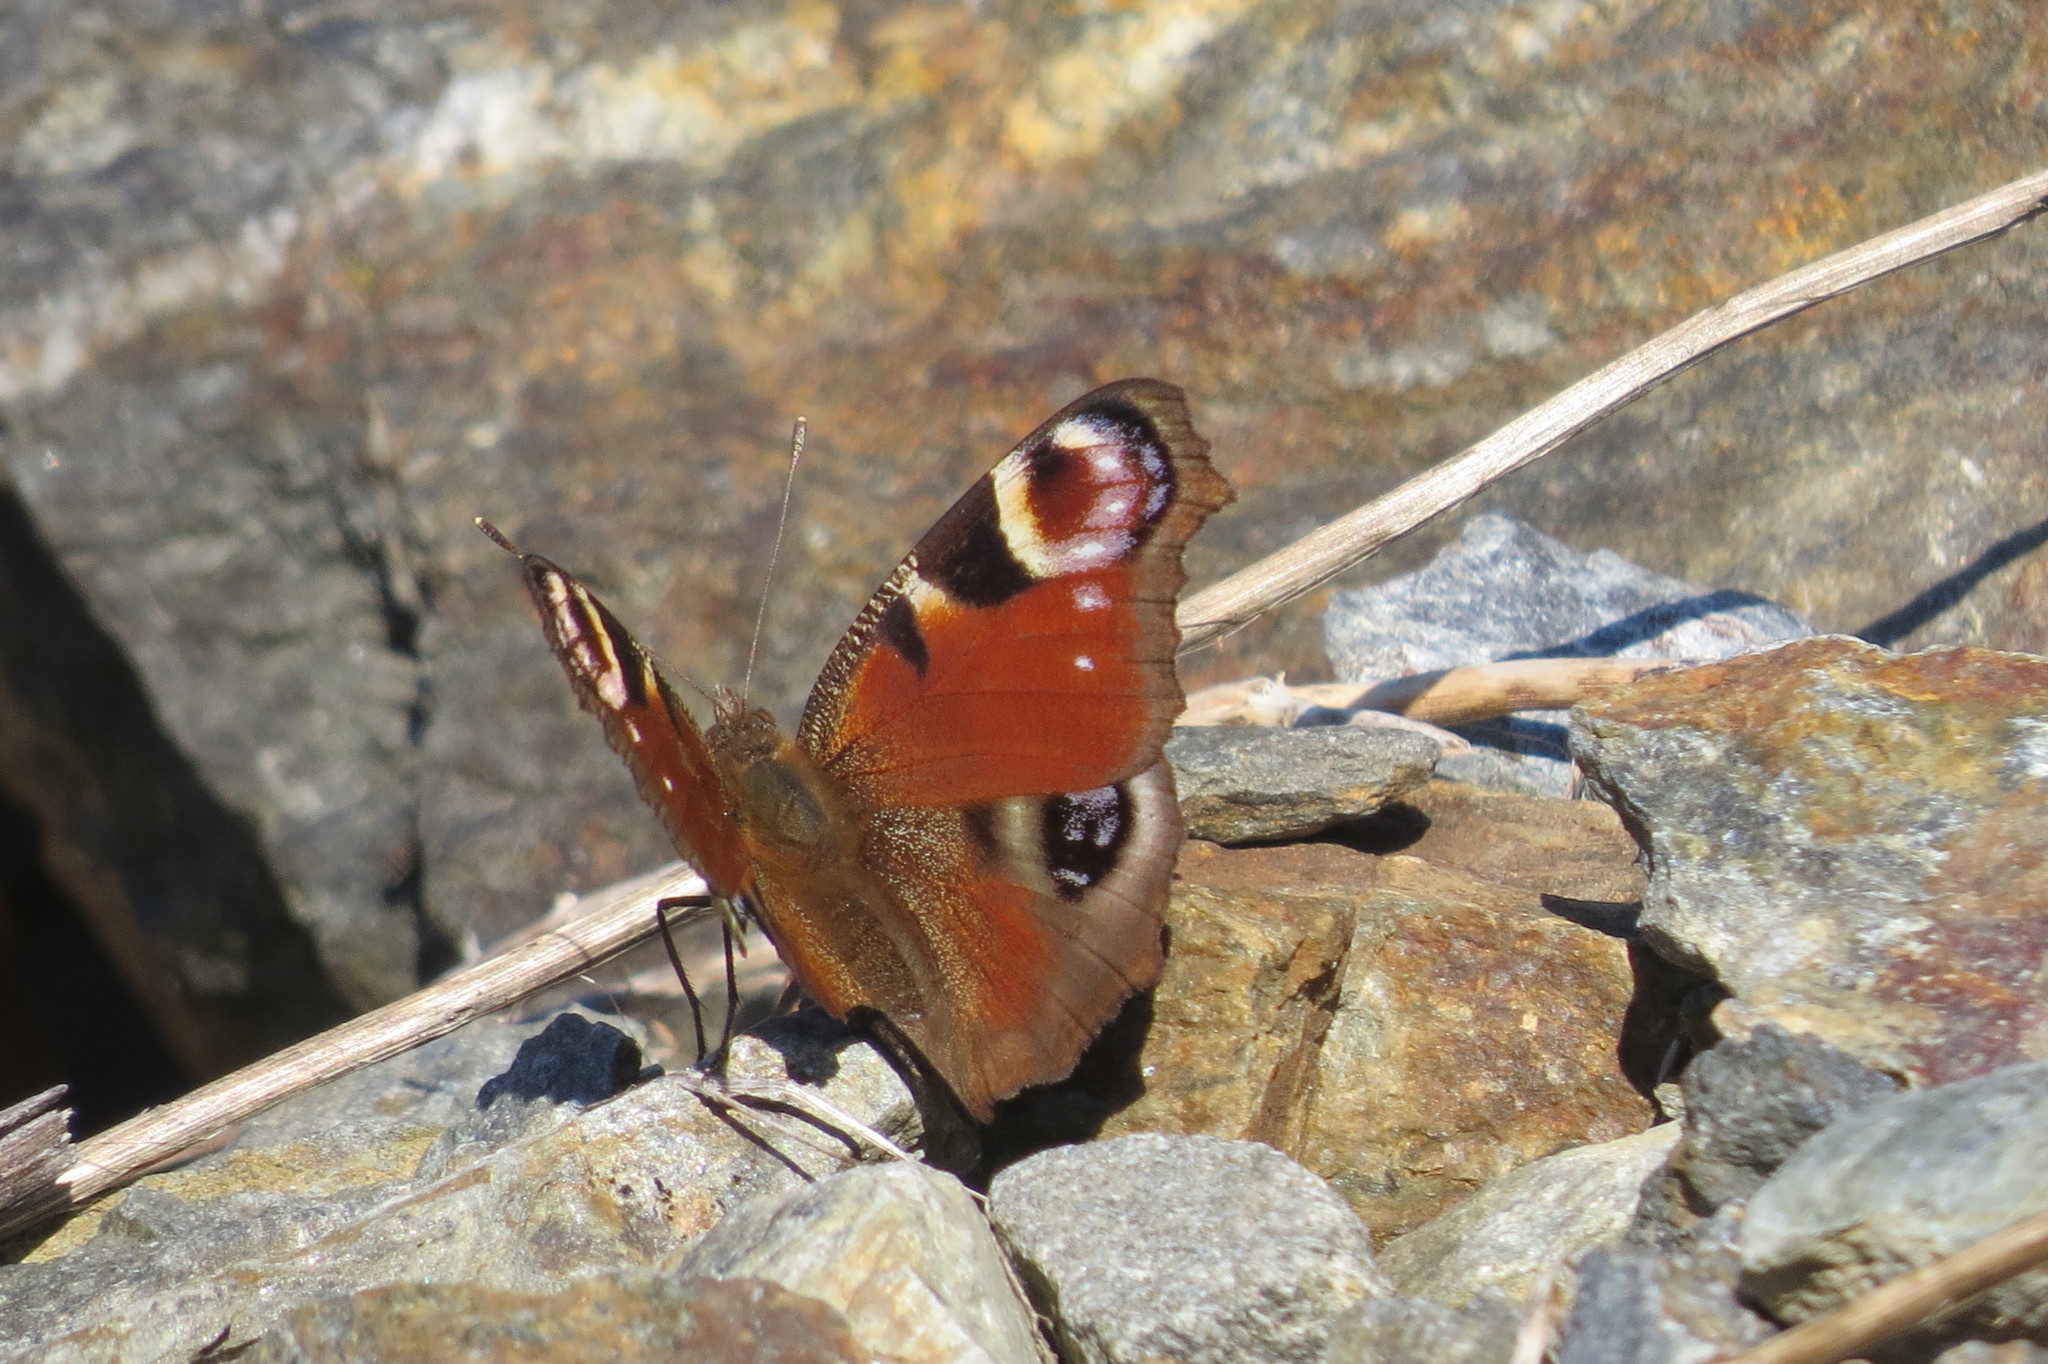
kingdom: Animalia
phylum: Arthropoda
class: Insecta
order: Lepidoptera
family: Nymphalidae
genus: Aglais
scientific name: Aglais io
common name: Peacock
